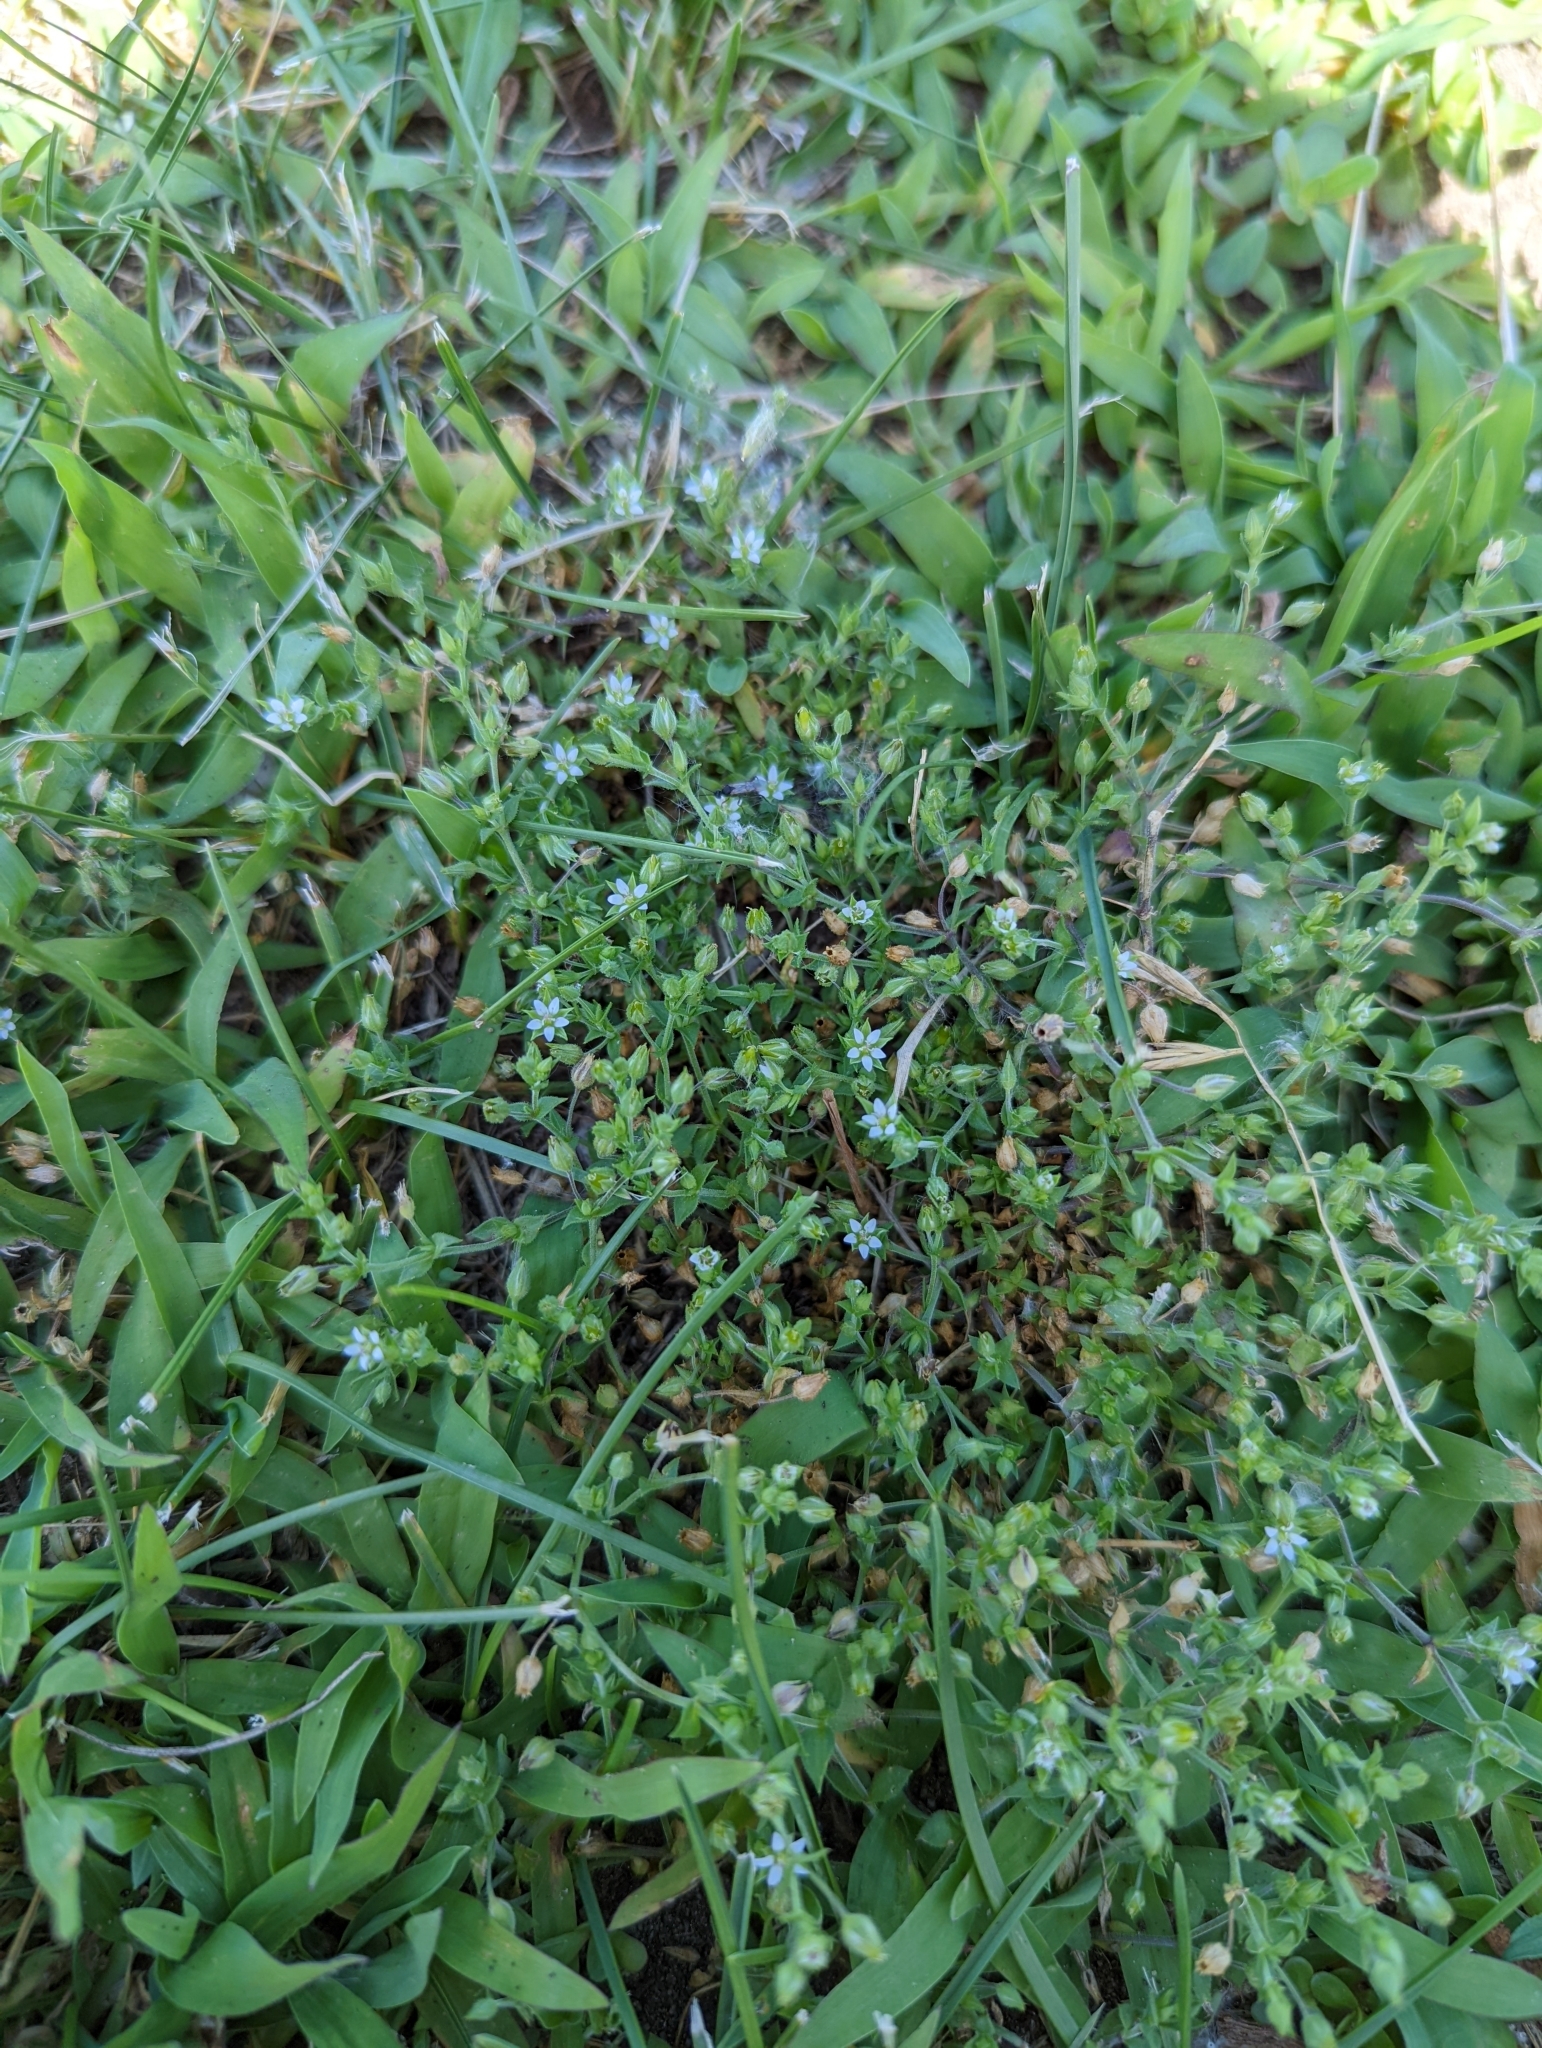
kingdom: Plantae
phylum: Tracheophyta
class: Magnoliopsida
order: Caryophyllales
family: Caryophyllaceae
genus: Arenaria
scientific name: Arenaria serpyllifolia
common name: Thyme-leaved sandwort
